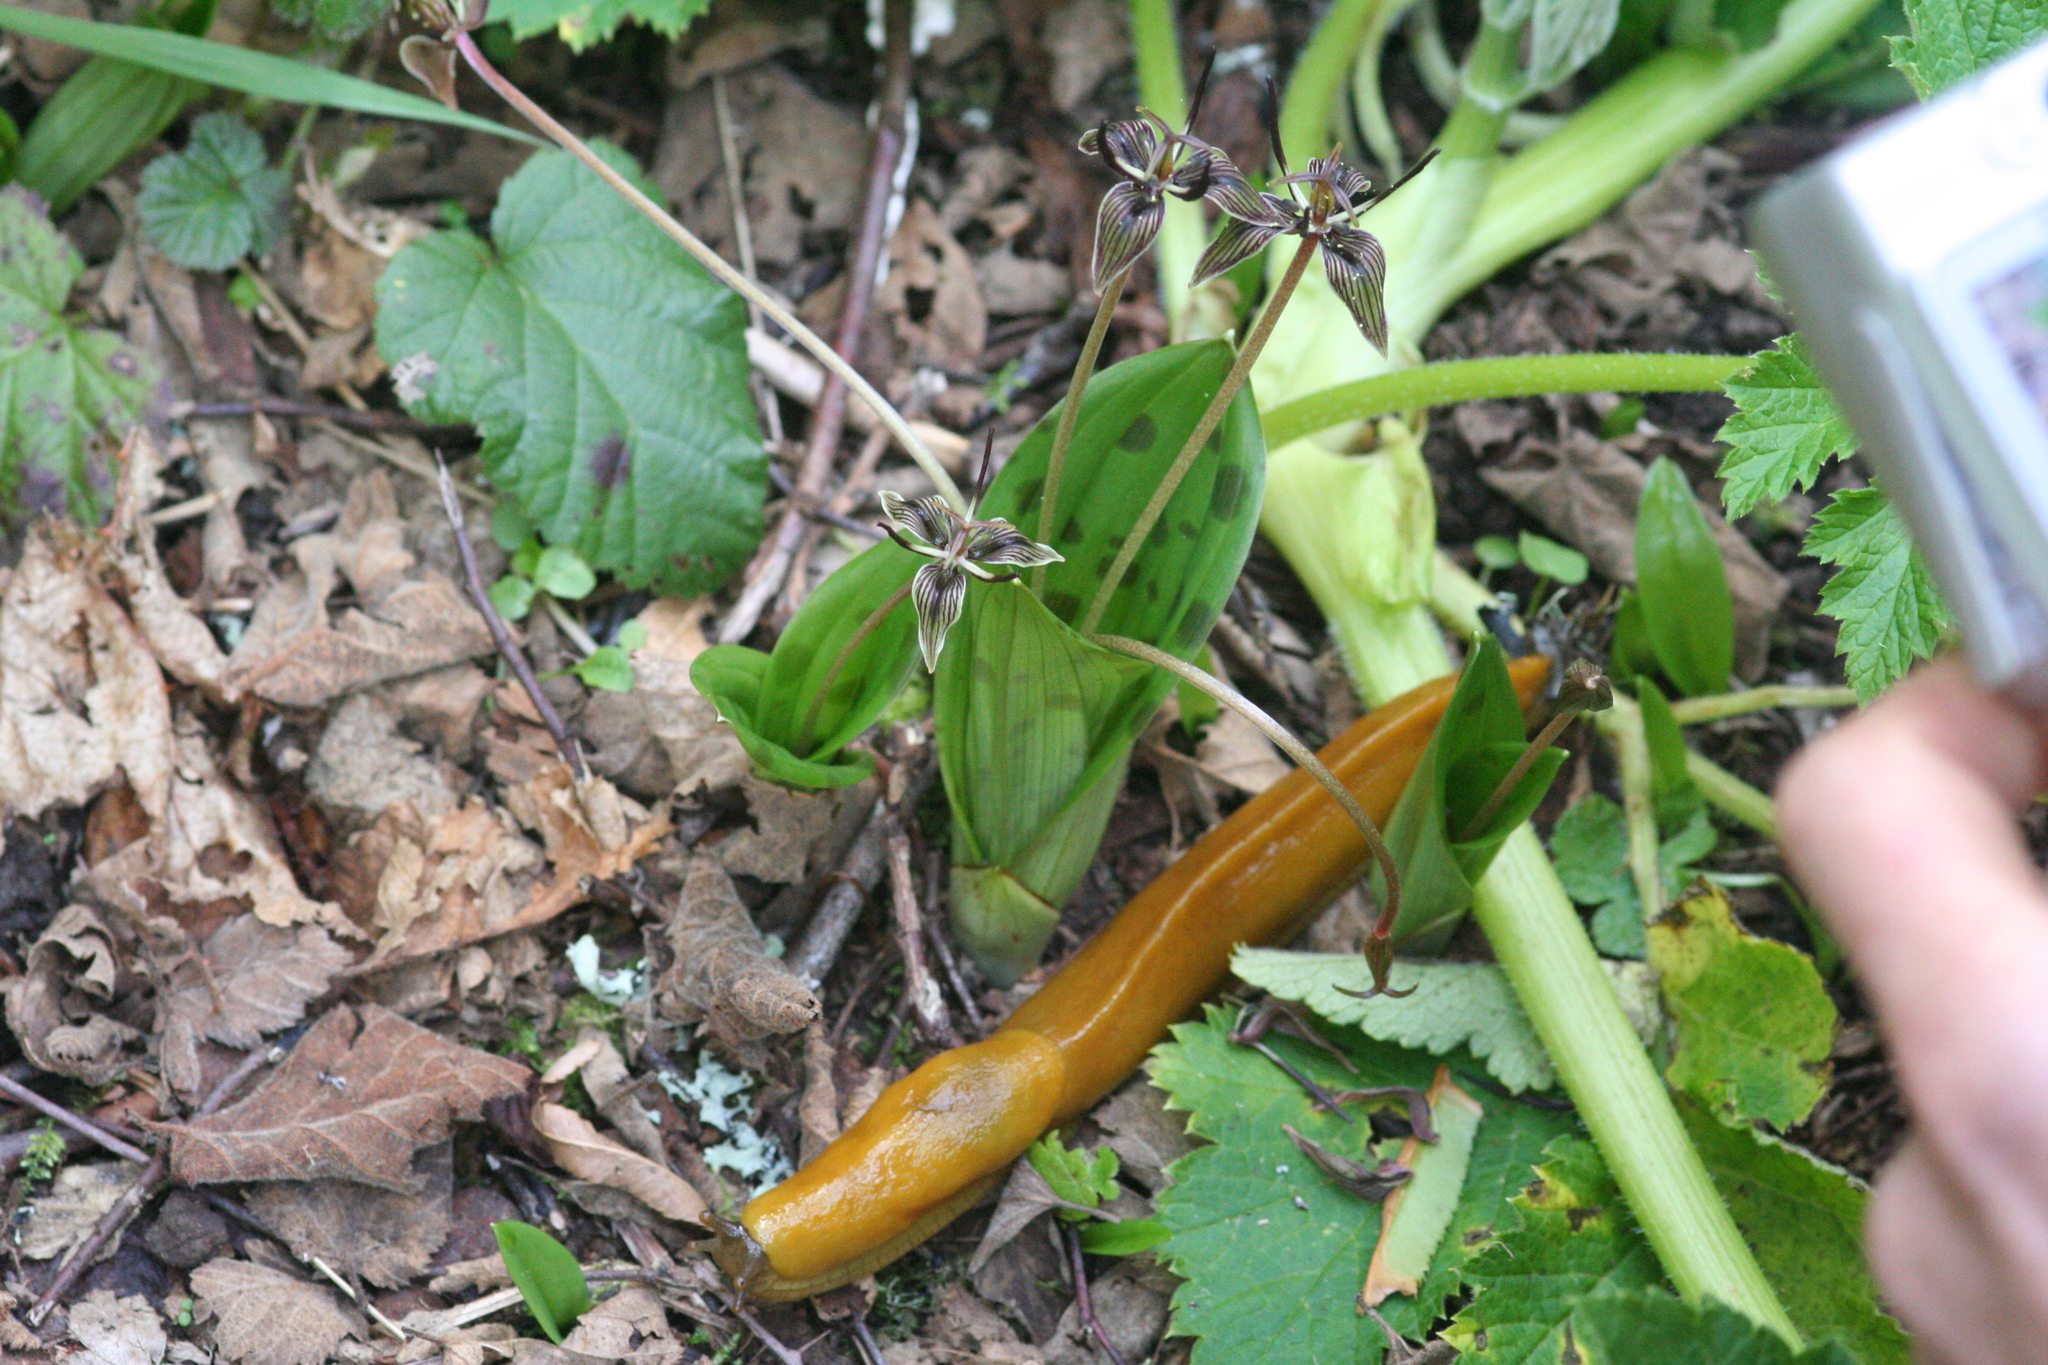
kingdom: Plantae
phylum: Tracheophyta
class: Liliopsida
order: Liliales
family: Liliaceae
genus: Scoliopus
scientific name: Scoliopus bigelovii
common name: Foetid adder's-tongue
